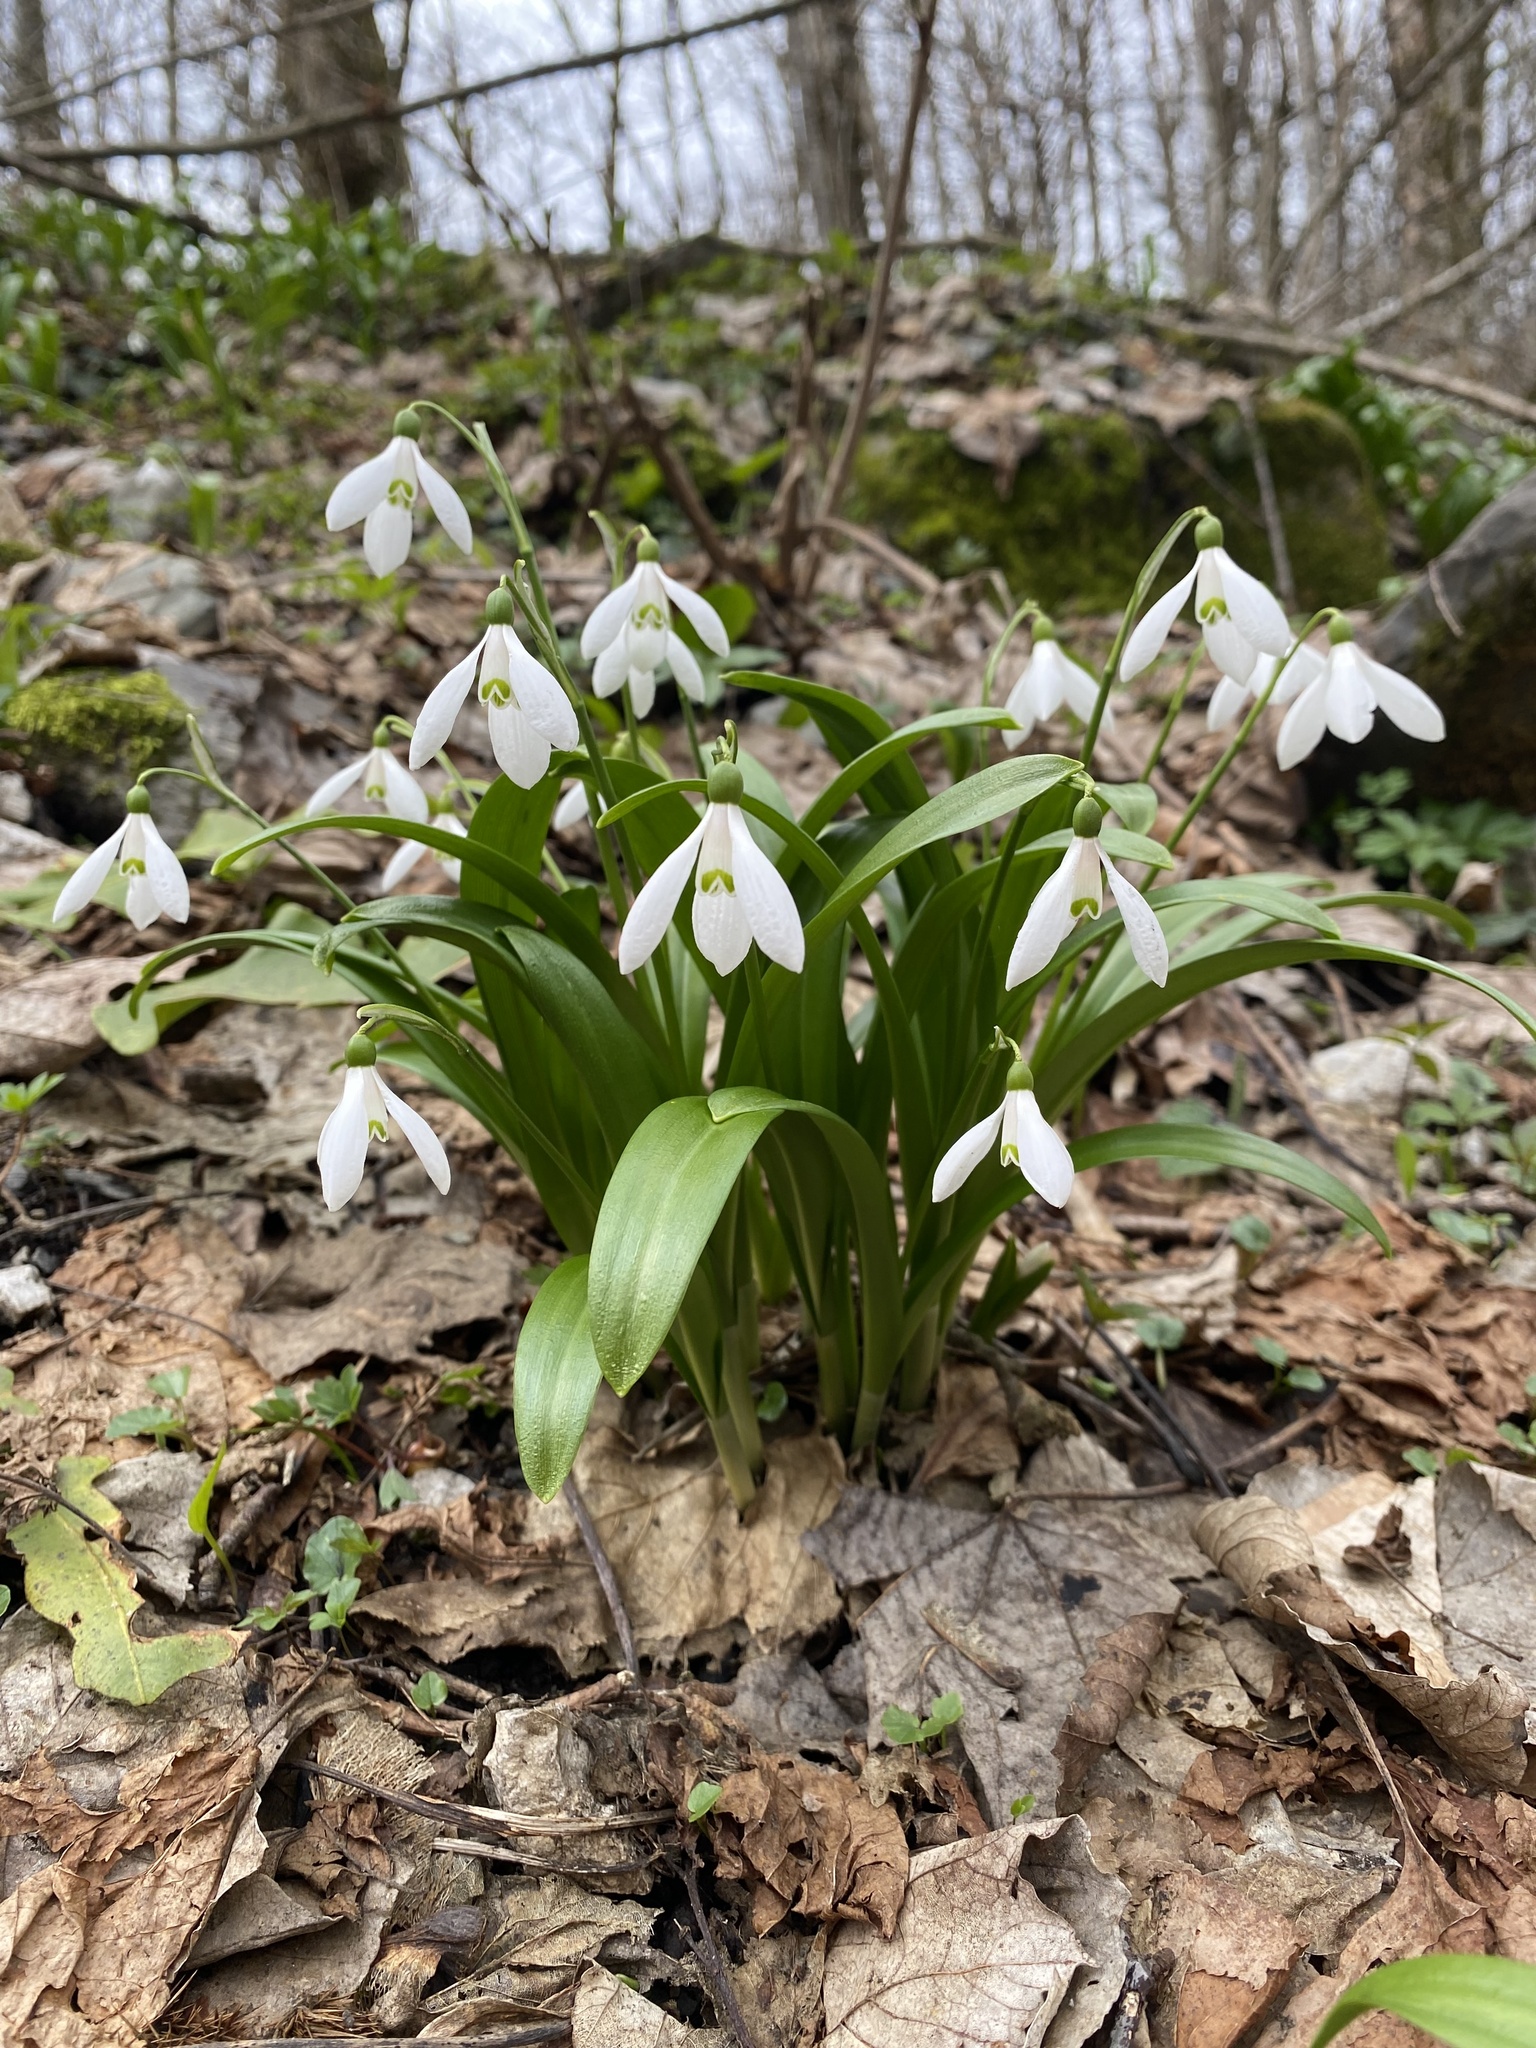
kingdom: Plantae
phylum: Tracheophyta
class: Liliopsida
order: Asparagales
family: Amaryllidaceae
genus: Galanthus
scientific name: Galanthus woronowii
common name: Green snowdrop
